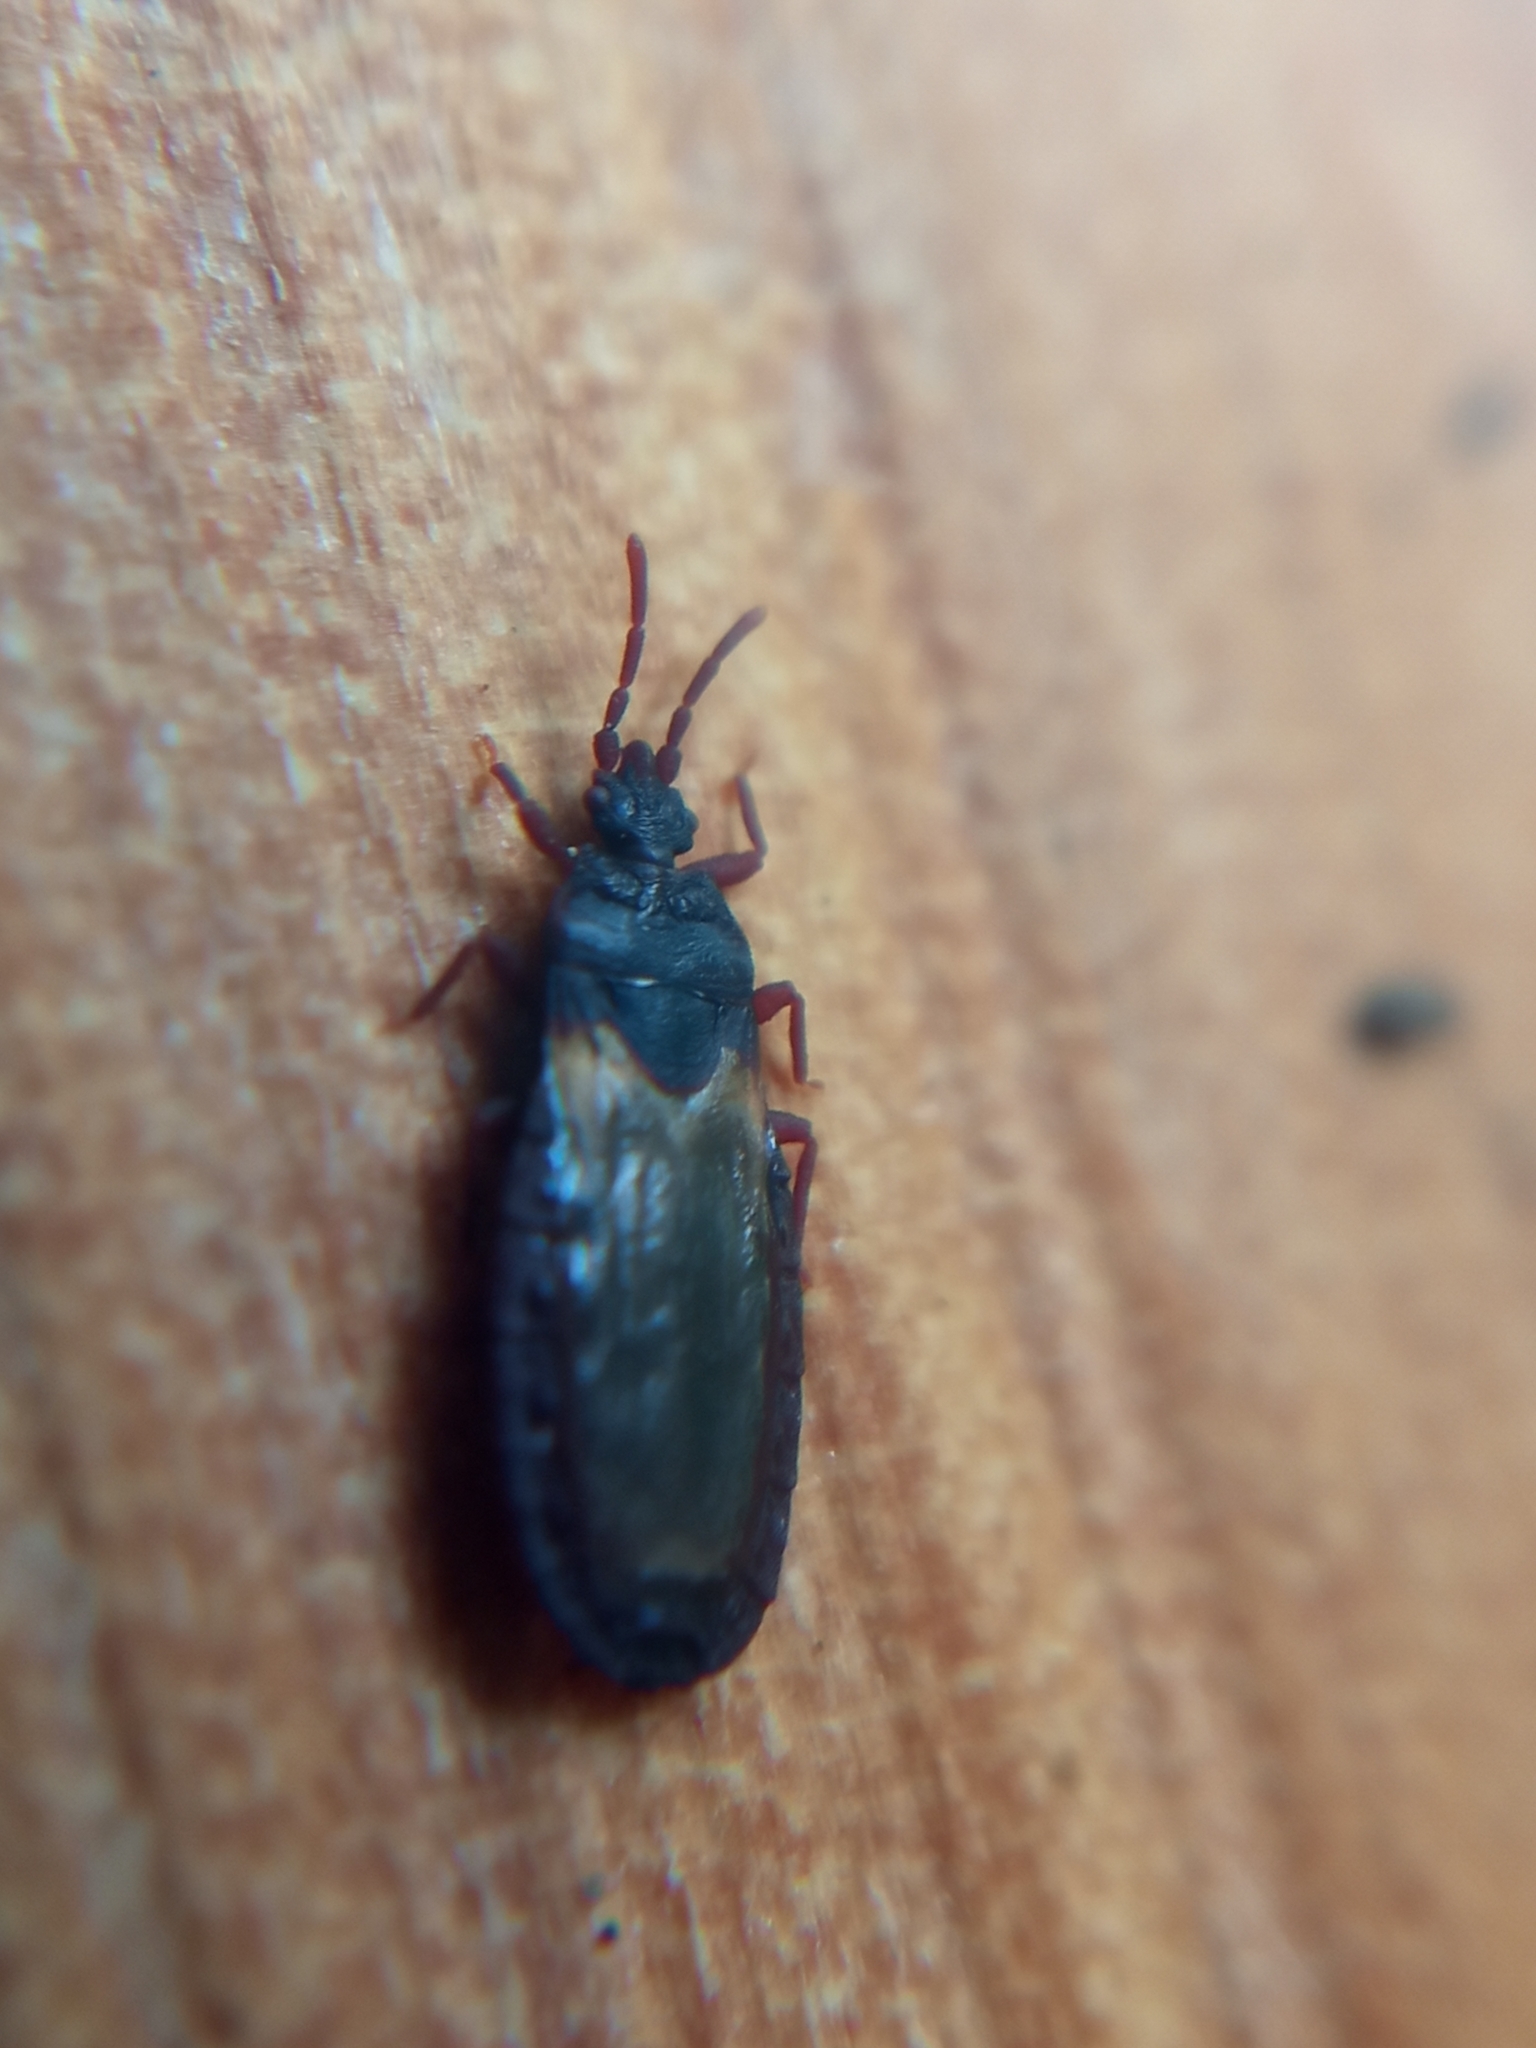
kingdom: Animalia
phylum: Arthropoda
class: Insecta
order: Hemiptera
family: Aradidae
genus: Aneurus
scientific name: Aneurus laevis
